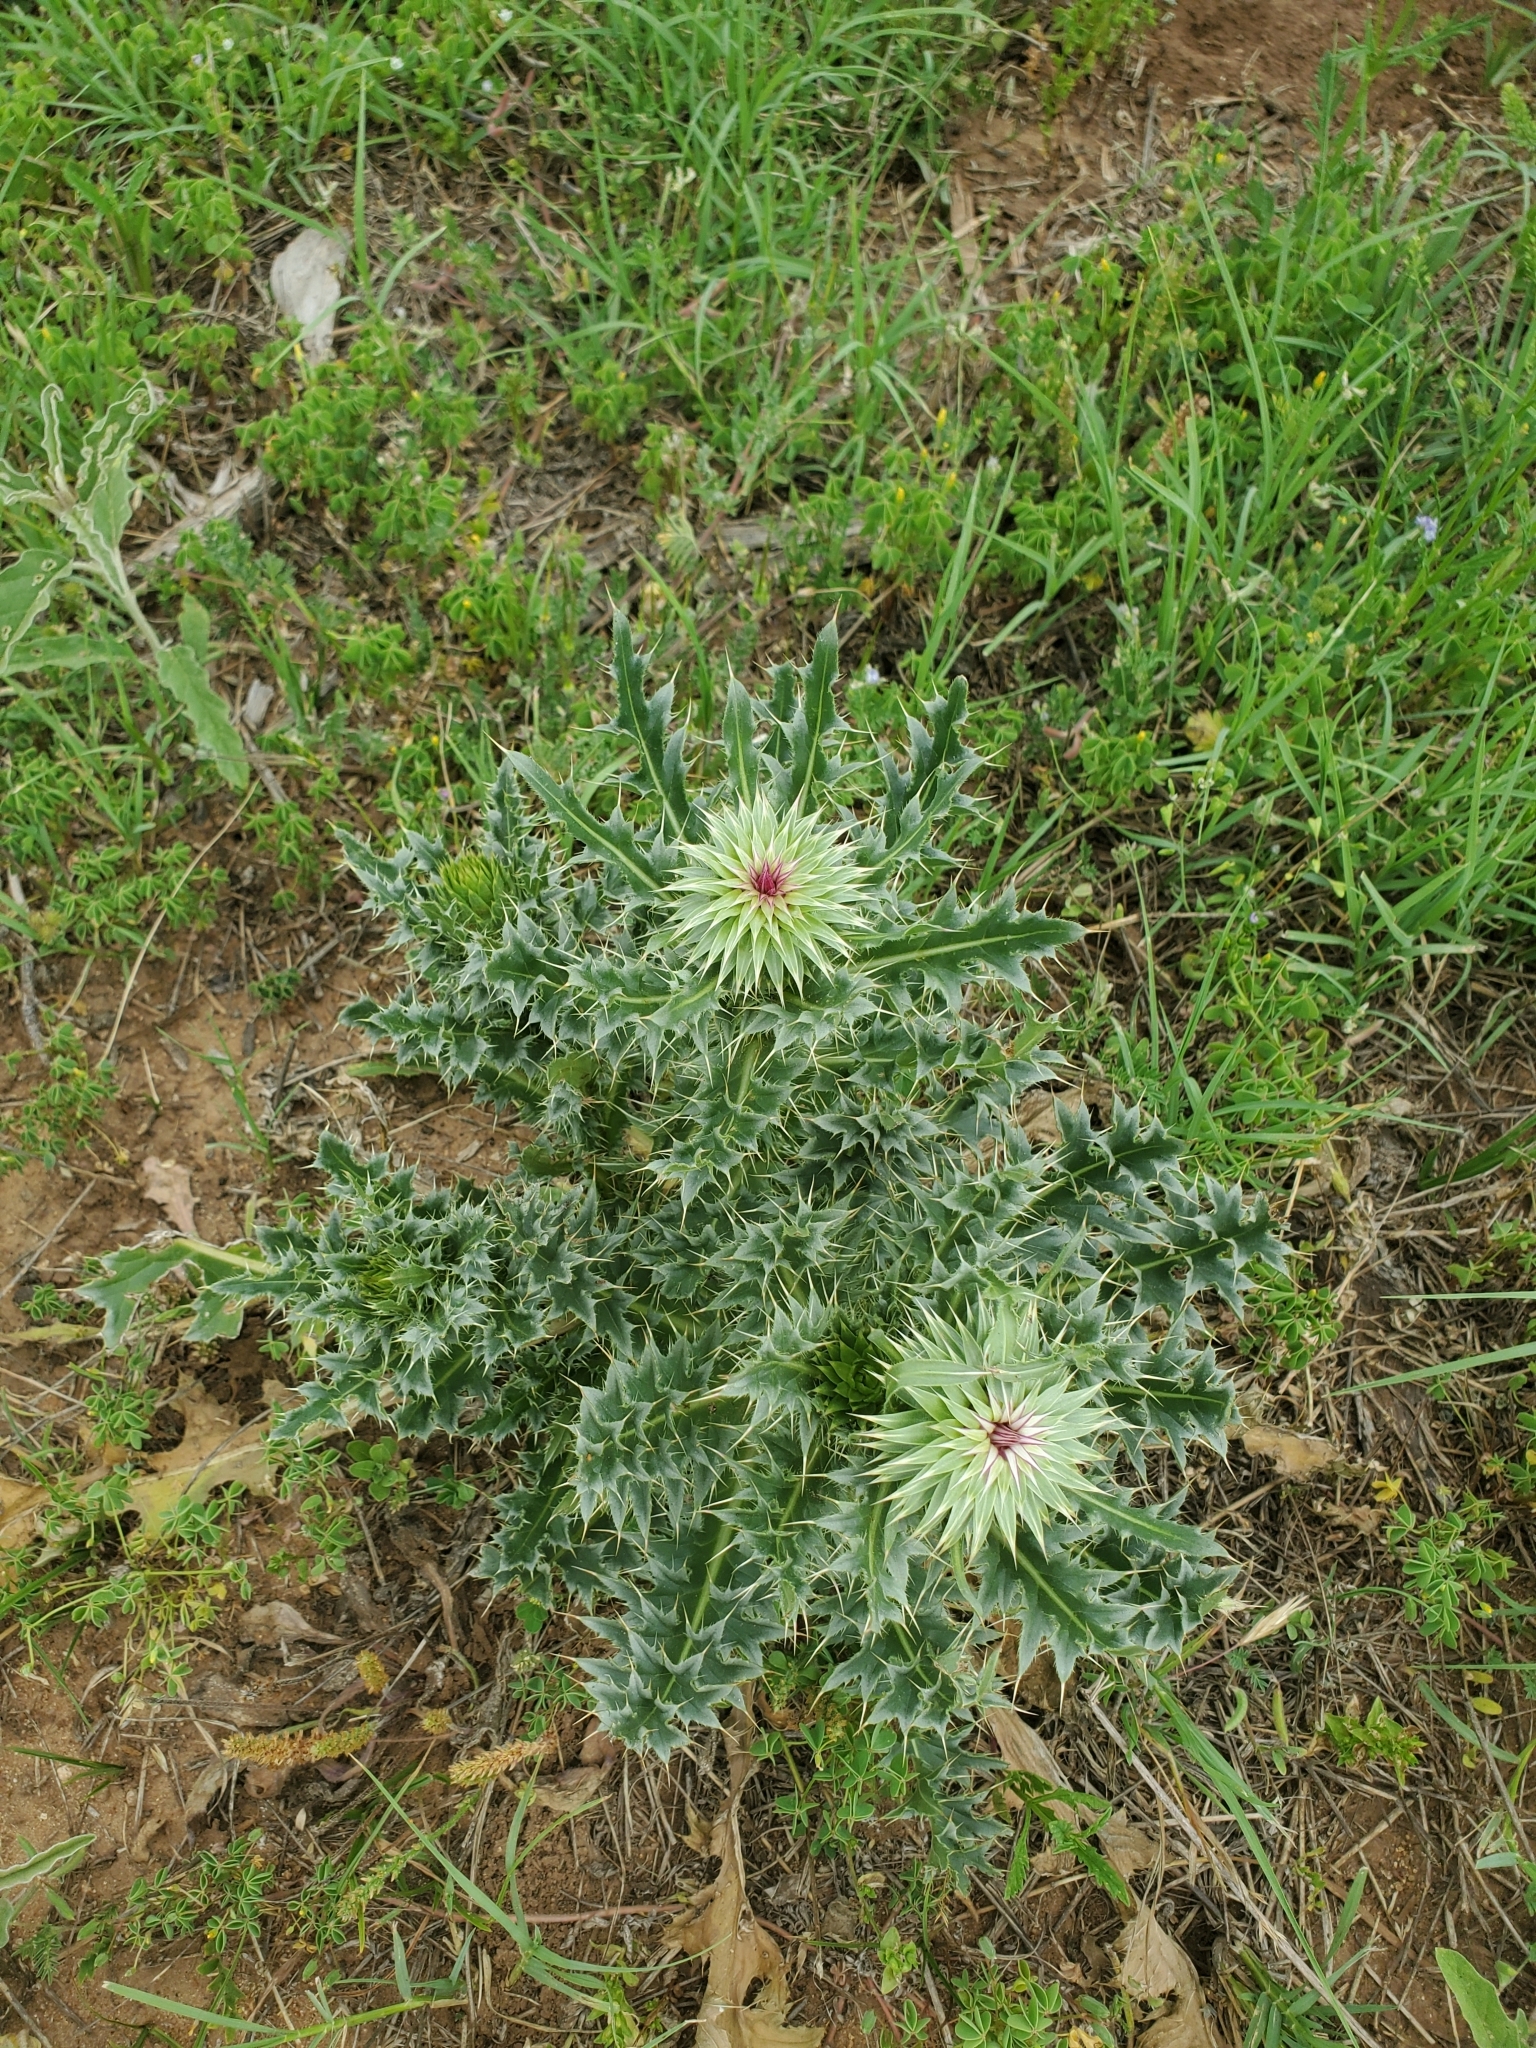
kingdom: Plantae
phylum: Tracheophyta
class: Magnoliopsida
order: Asterales
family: Asteraceae
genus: Carduus
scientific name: Carduus nutans
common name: Musk thistle
